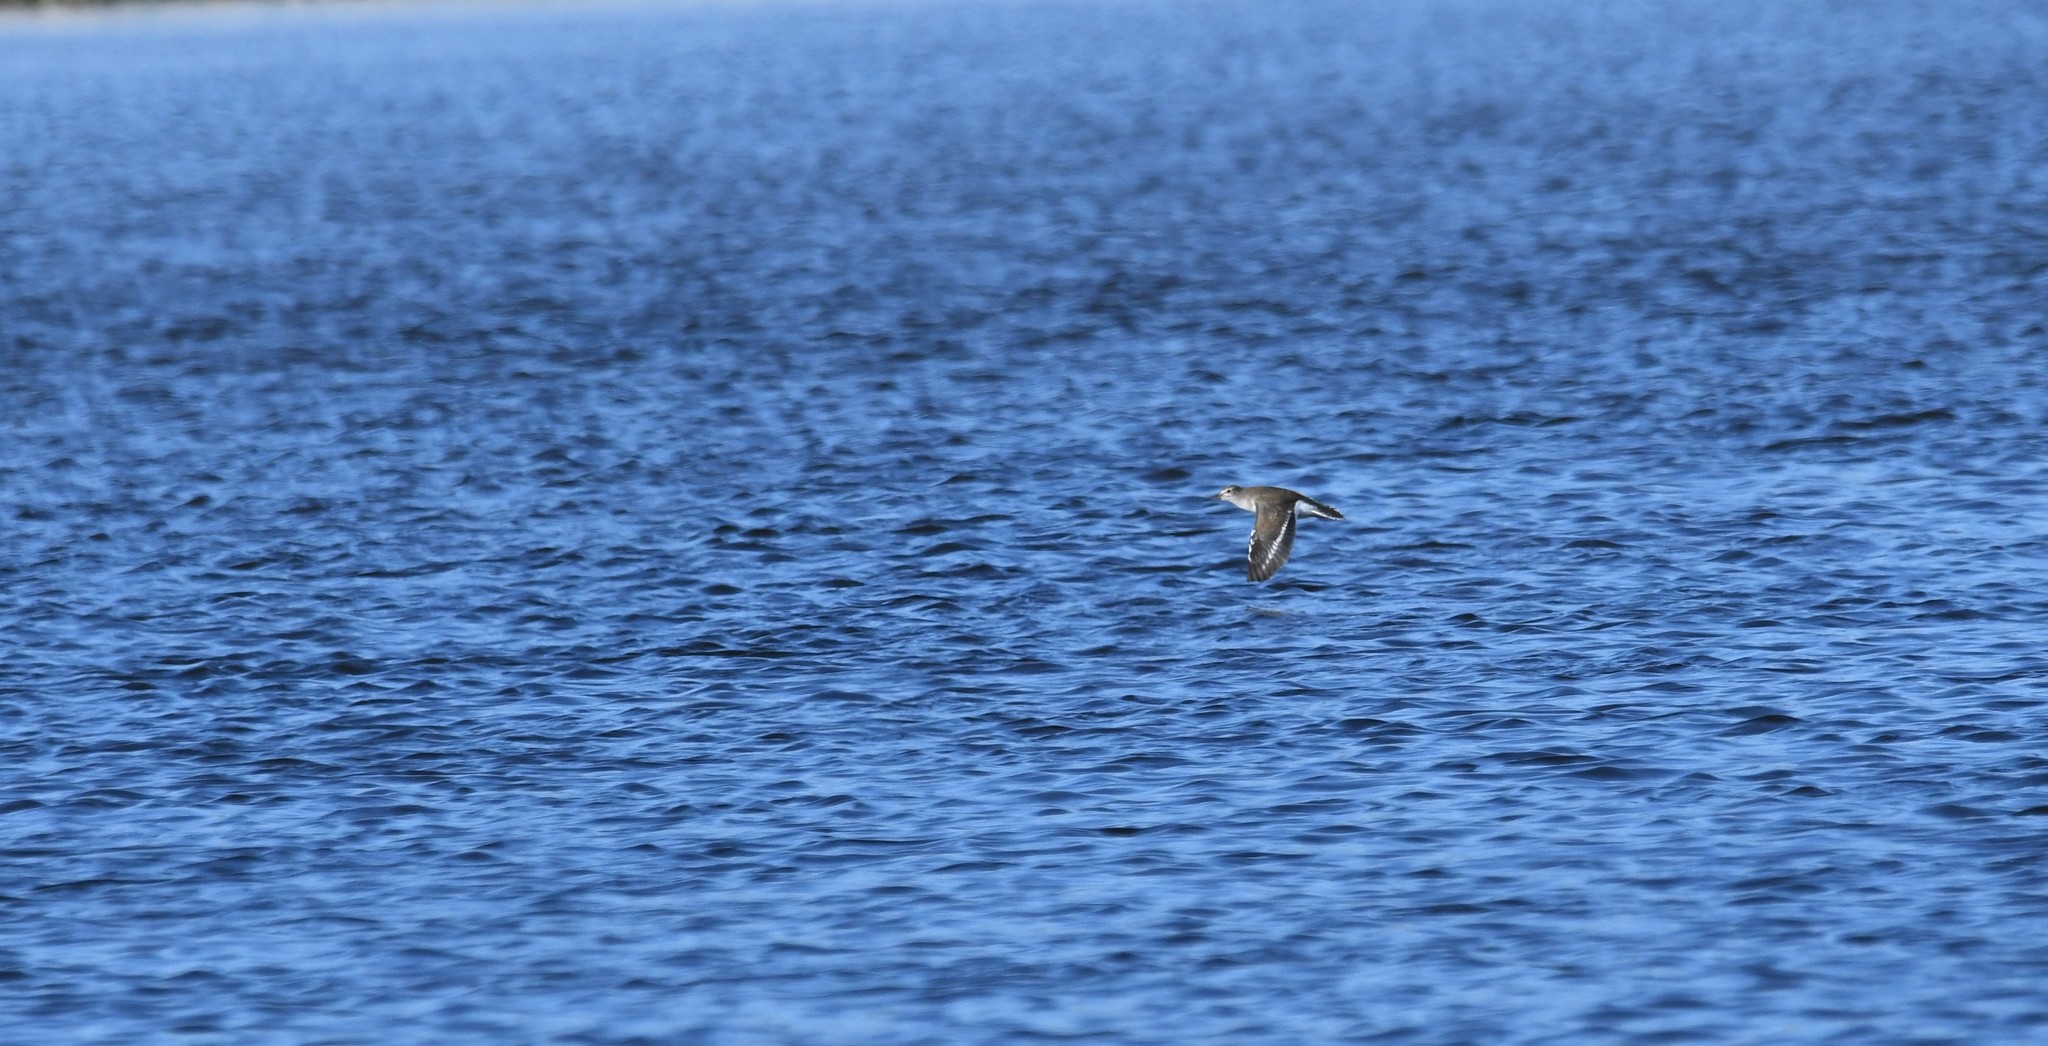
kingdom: Animalia
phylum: Chordata
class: Aves
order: Charadriiformes
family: Scolopacidae
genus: Actitis
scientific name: Actitis hypoleucos
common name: Common sandpiper
